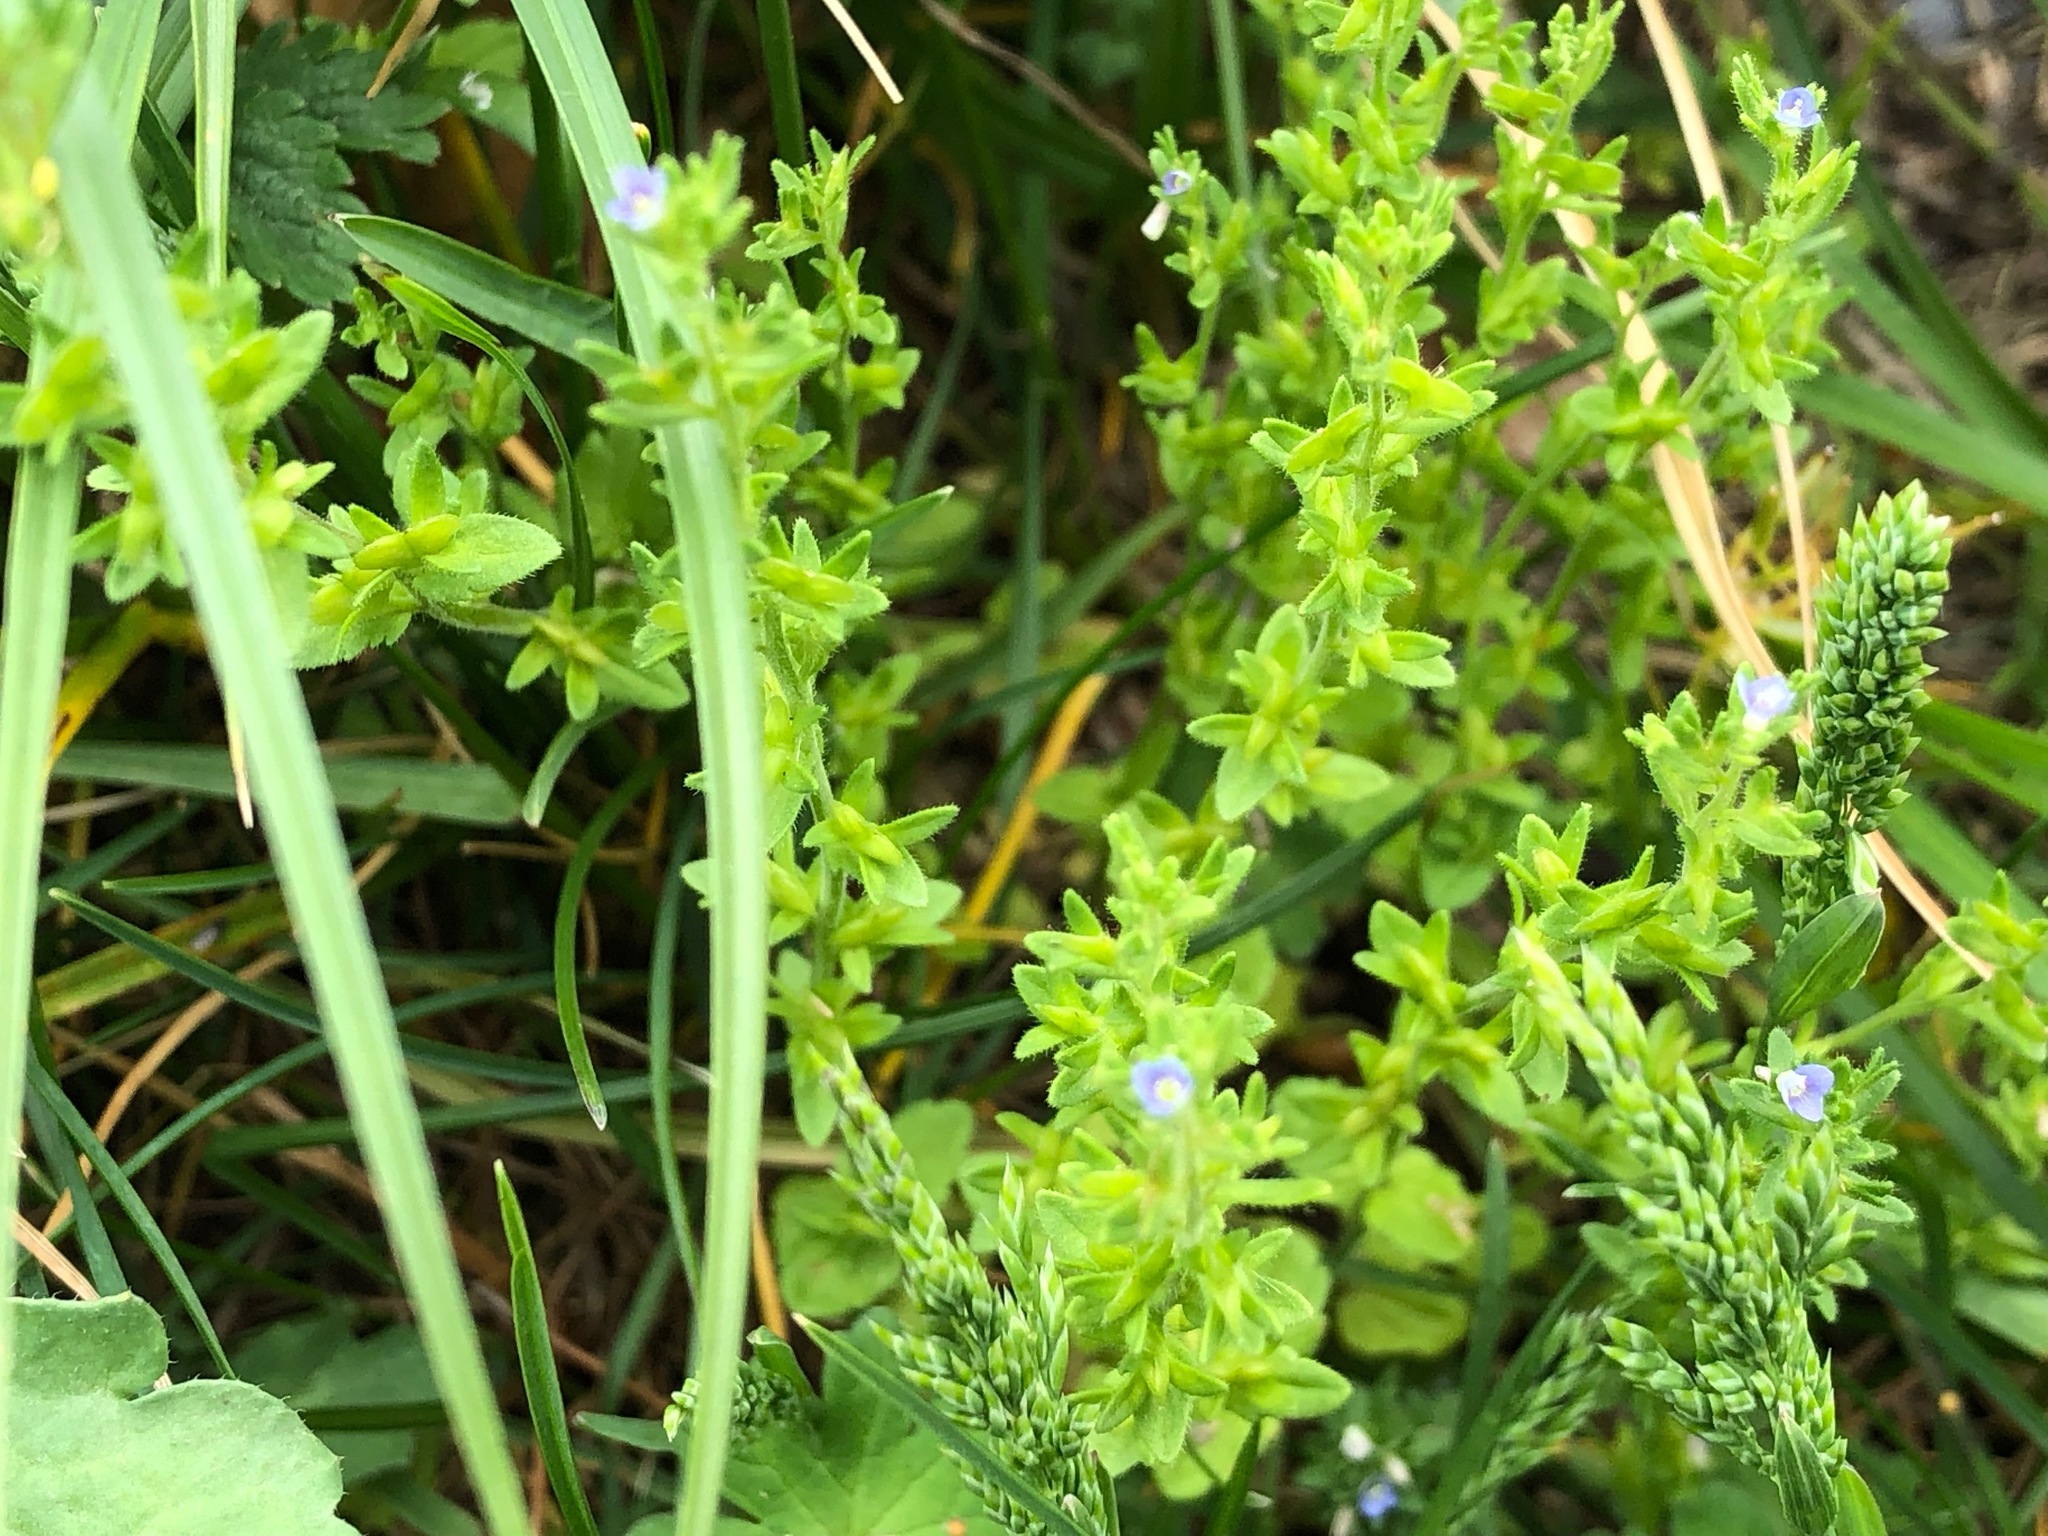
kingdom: Plantae
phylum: Tracheophyta
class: Magnoliopsida
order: Lamiales
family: Plantaginaceae
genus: Veronica
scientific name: Veronica arvensis
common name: Corn speedwell
